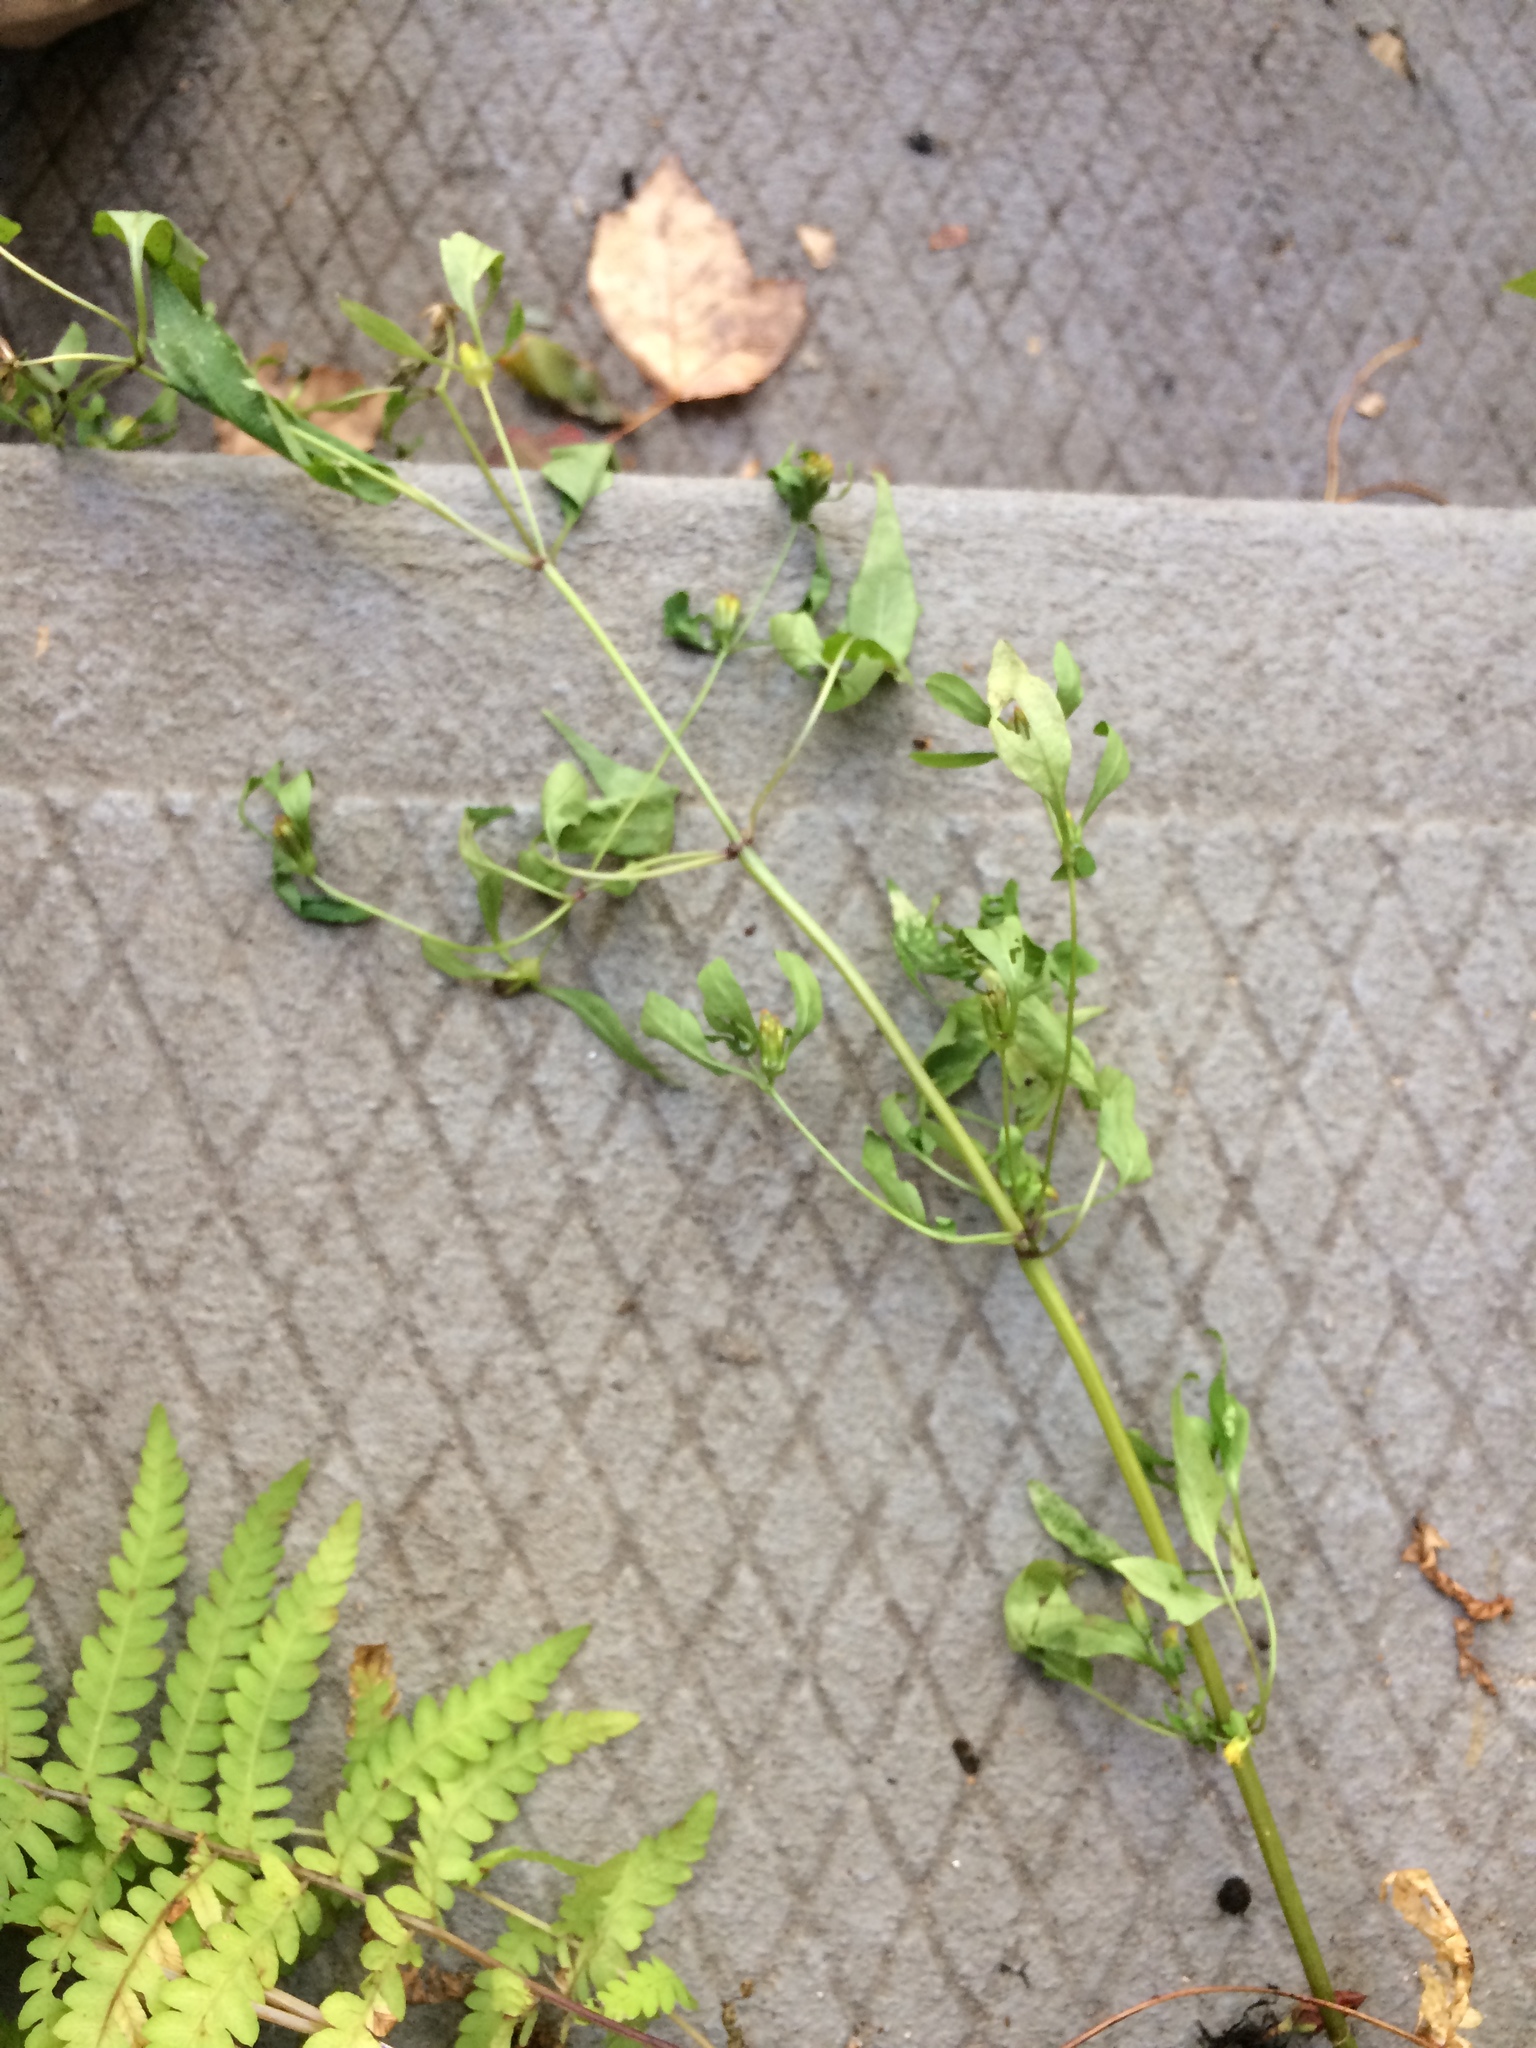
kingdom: Plantae
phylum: Tracheophyta
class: Magnoliopsida
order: Asterales
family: Asteraceae
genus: Bidens
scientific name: Bidens discoidea
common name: Discoide beggarticks
